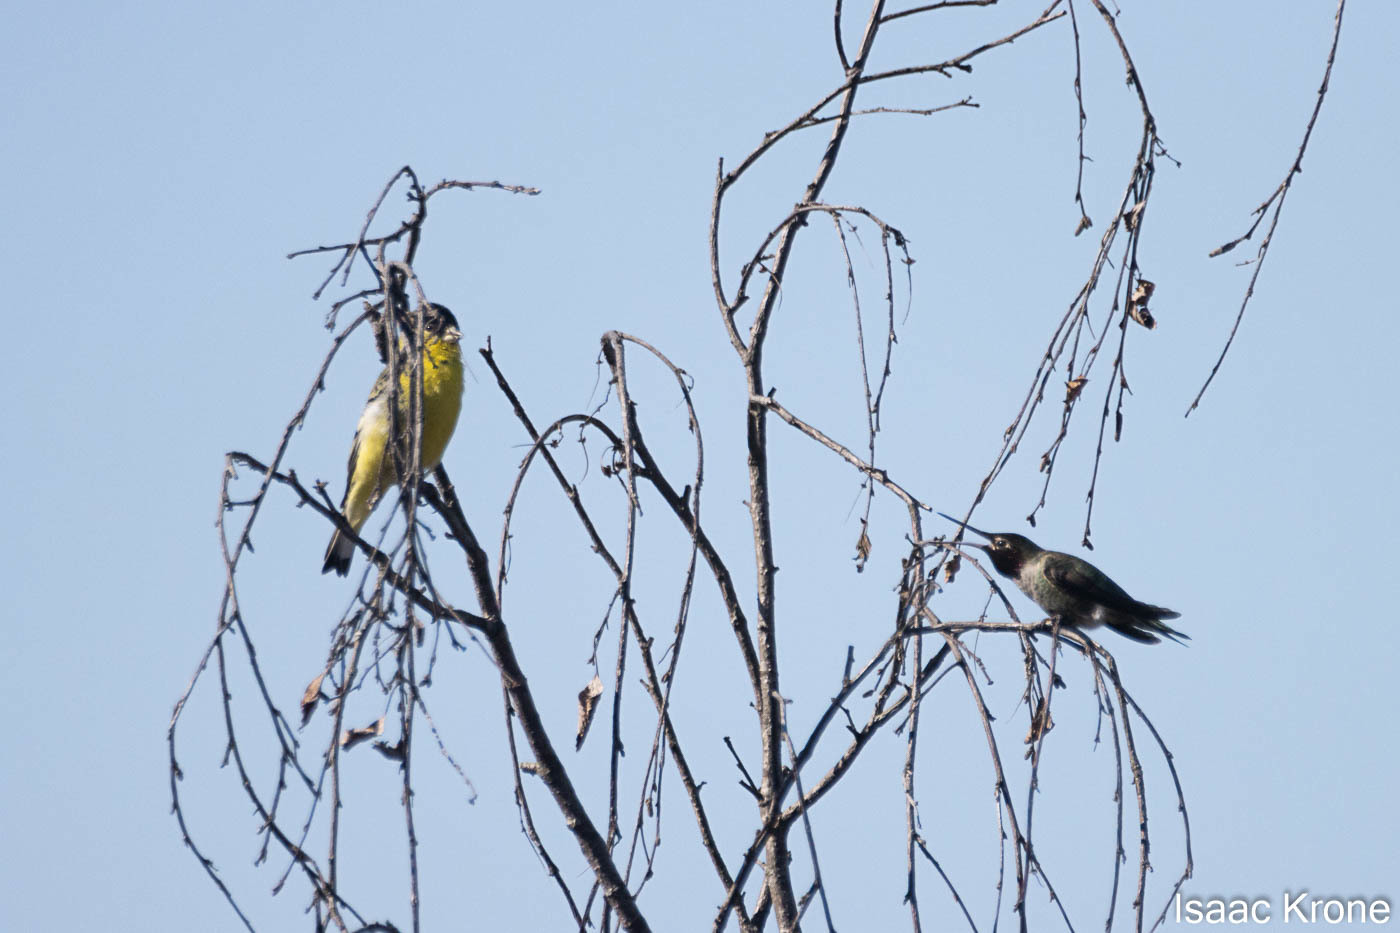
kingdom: Animalia
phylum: Chordata
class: Aves
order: Passeriformes
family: Fringillidae
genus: Spinus
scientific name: Spinus psaltria
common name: Lesser goldfinch
